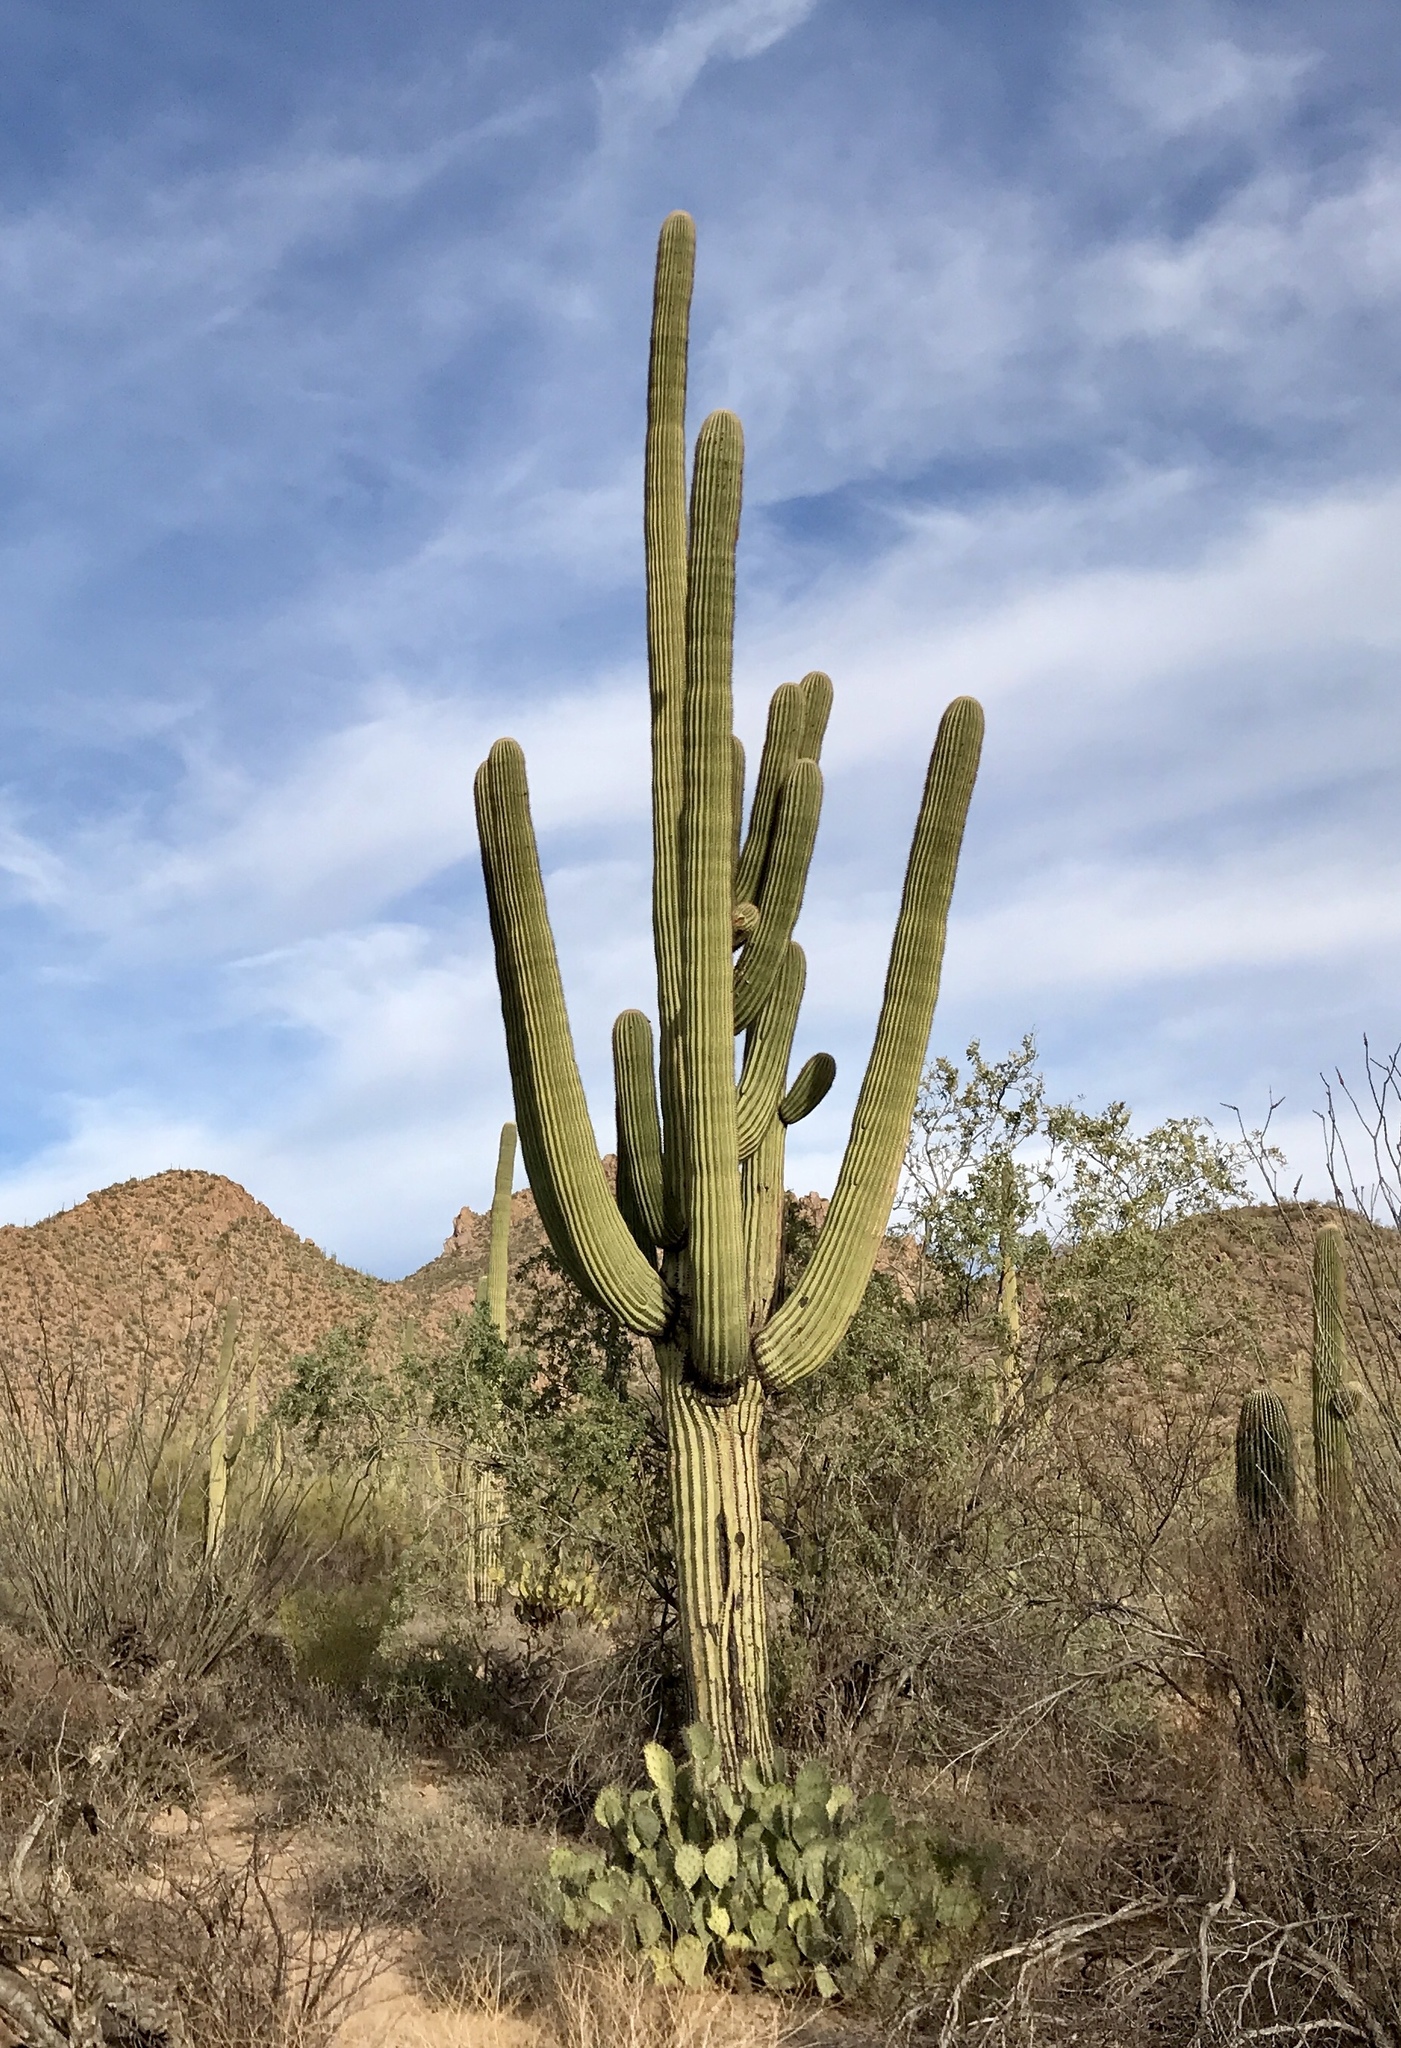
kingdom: Plantae
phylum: Tracheophyta
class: Magnoliopsida
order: Caryophyllales
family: Cactaceae
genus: Carnegiea
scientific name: Carnegiea gigantea
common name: Saguaro
